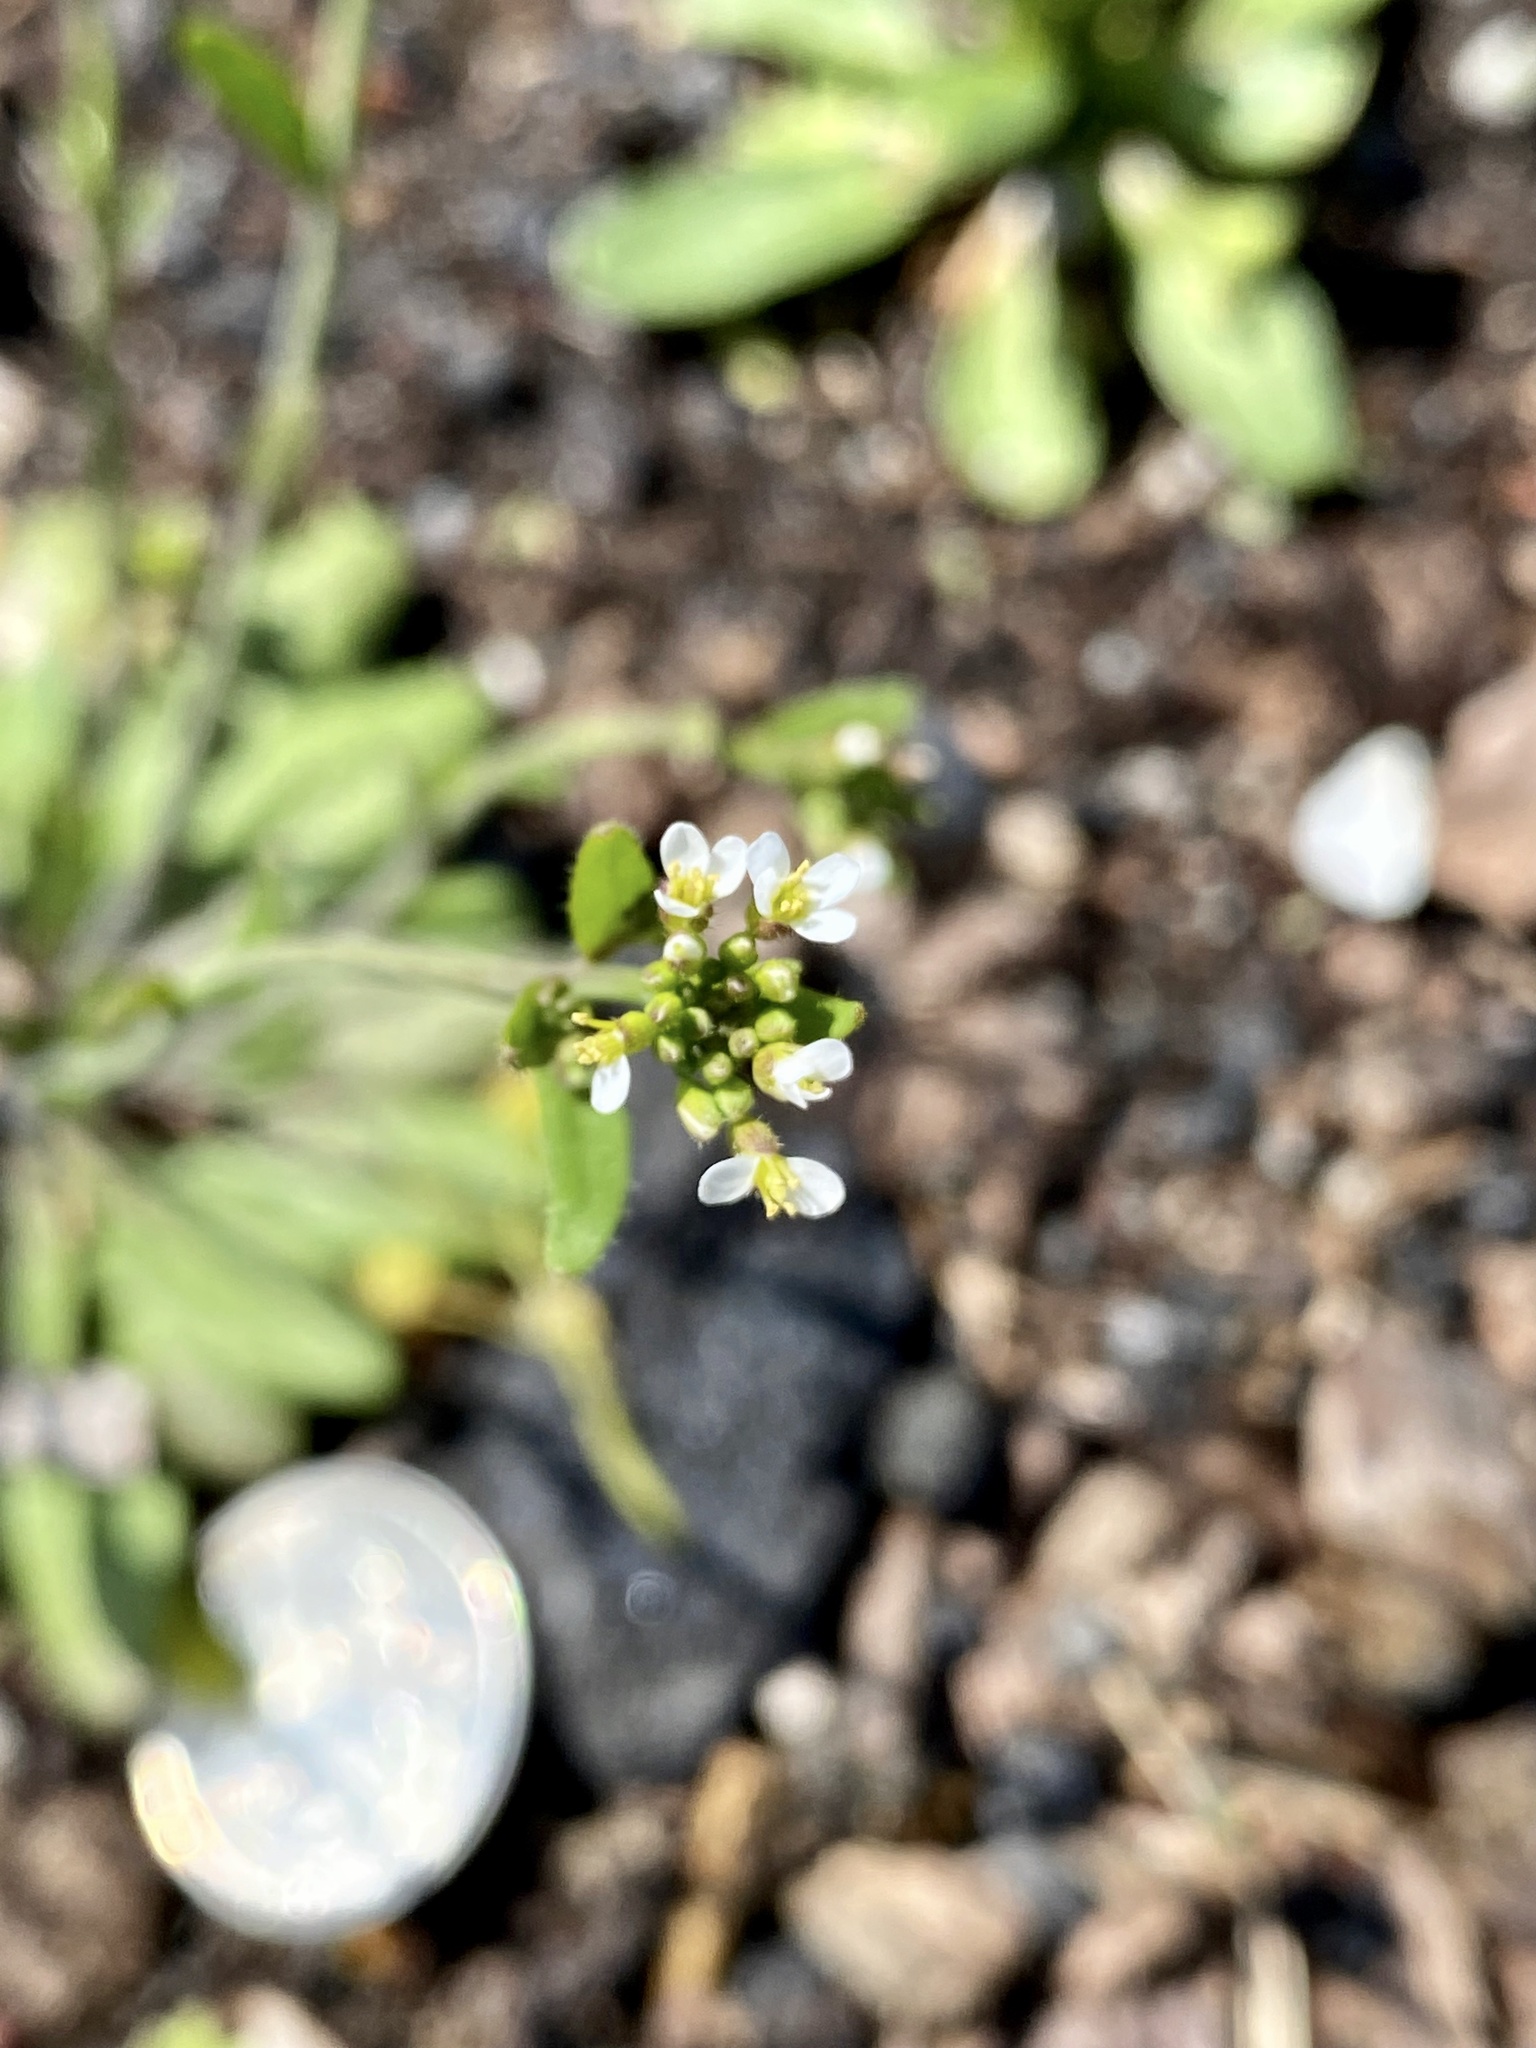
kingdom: Plantae
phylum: Tracheophyta
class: Magnoliopsida
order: Brassicales
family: Brassicaceae
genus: Arabidopsis
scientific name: Arabidopsis thaliana
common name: Thale cress
